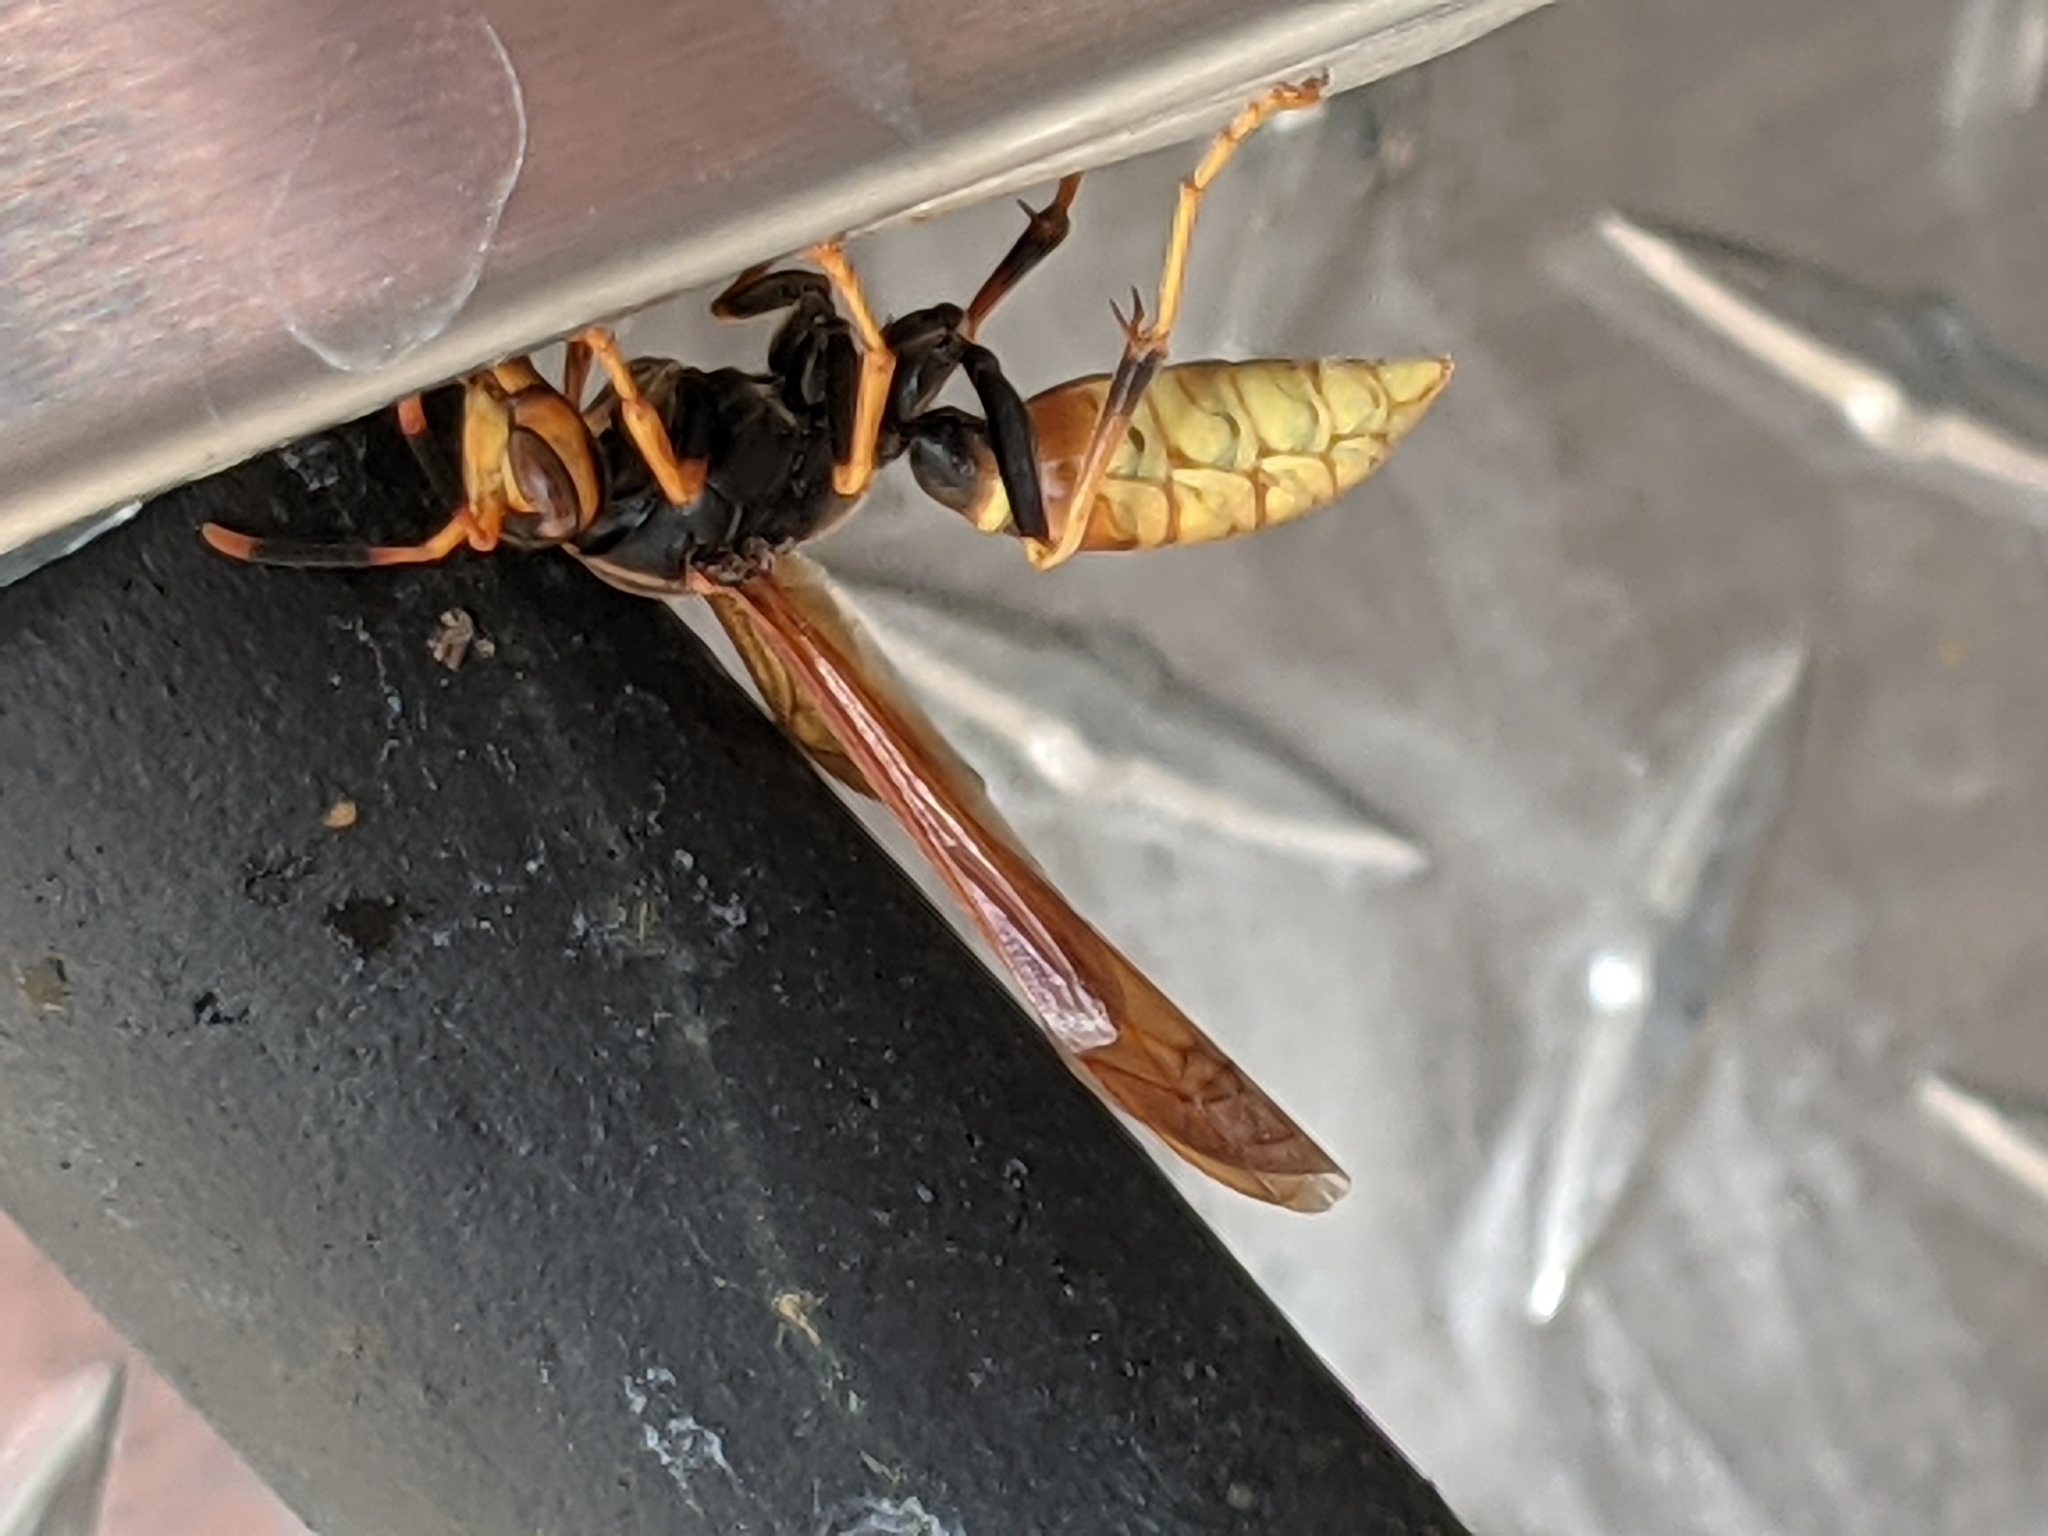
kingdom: Animalia
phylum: Arthropoda
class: Insecta
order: Hymenoptera
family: Eumenidae
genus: Polistes
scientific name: Polistes comanchus
